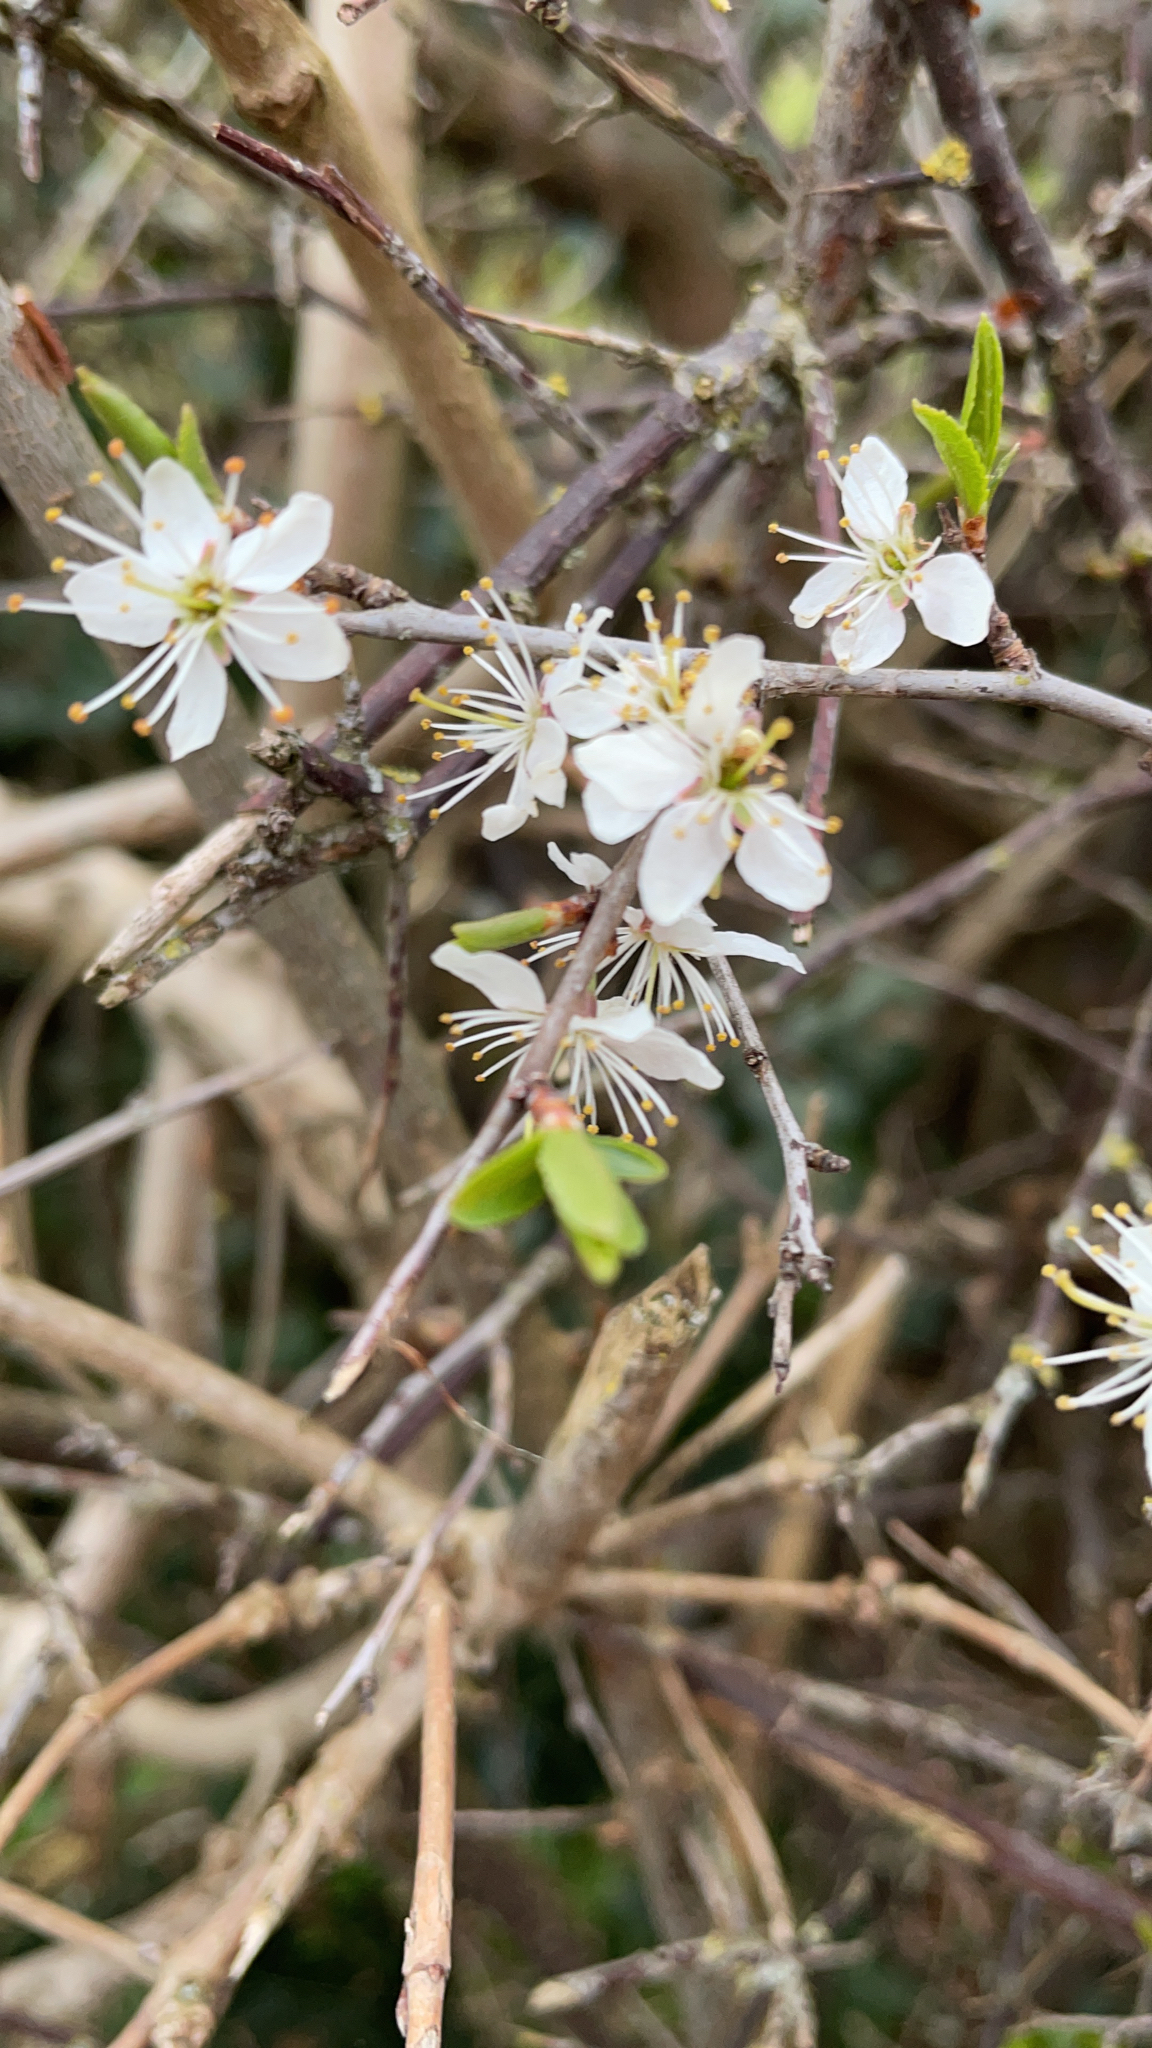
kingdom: Plantae
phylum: Tracheophyta
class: Magnoliopsida
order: Rosales
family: Rosaceae
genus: Prunus
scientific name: Prunus spinosa
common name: Blackthorn
